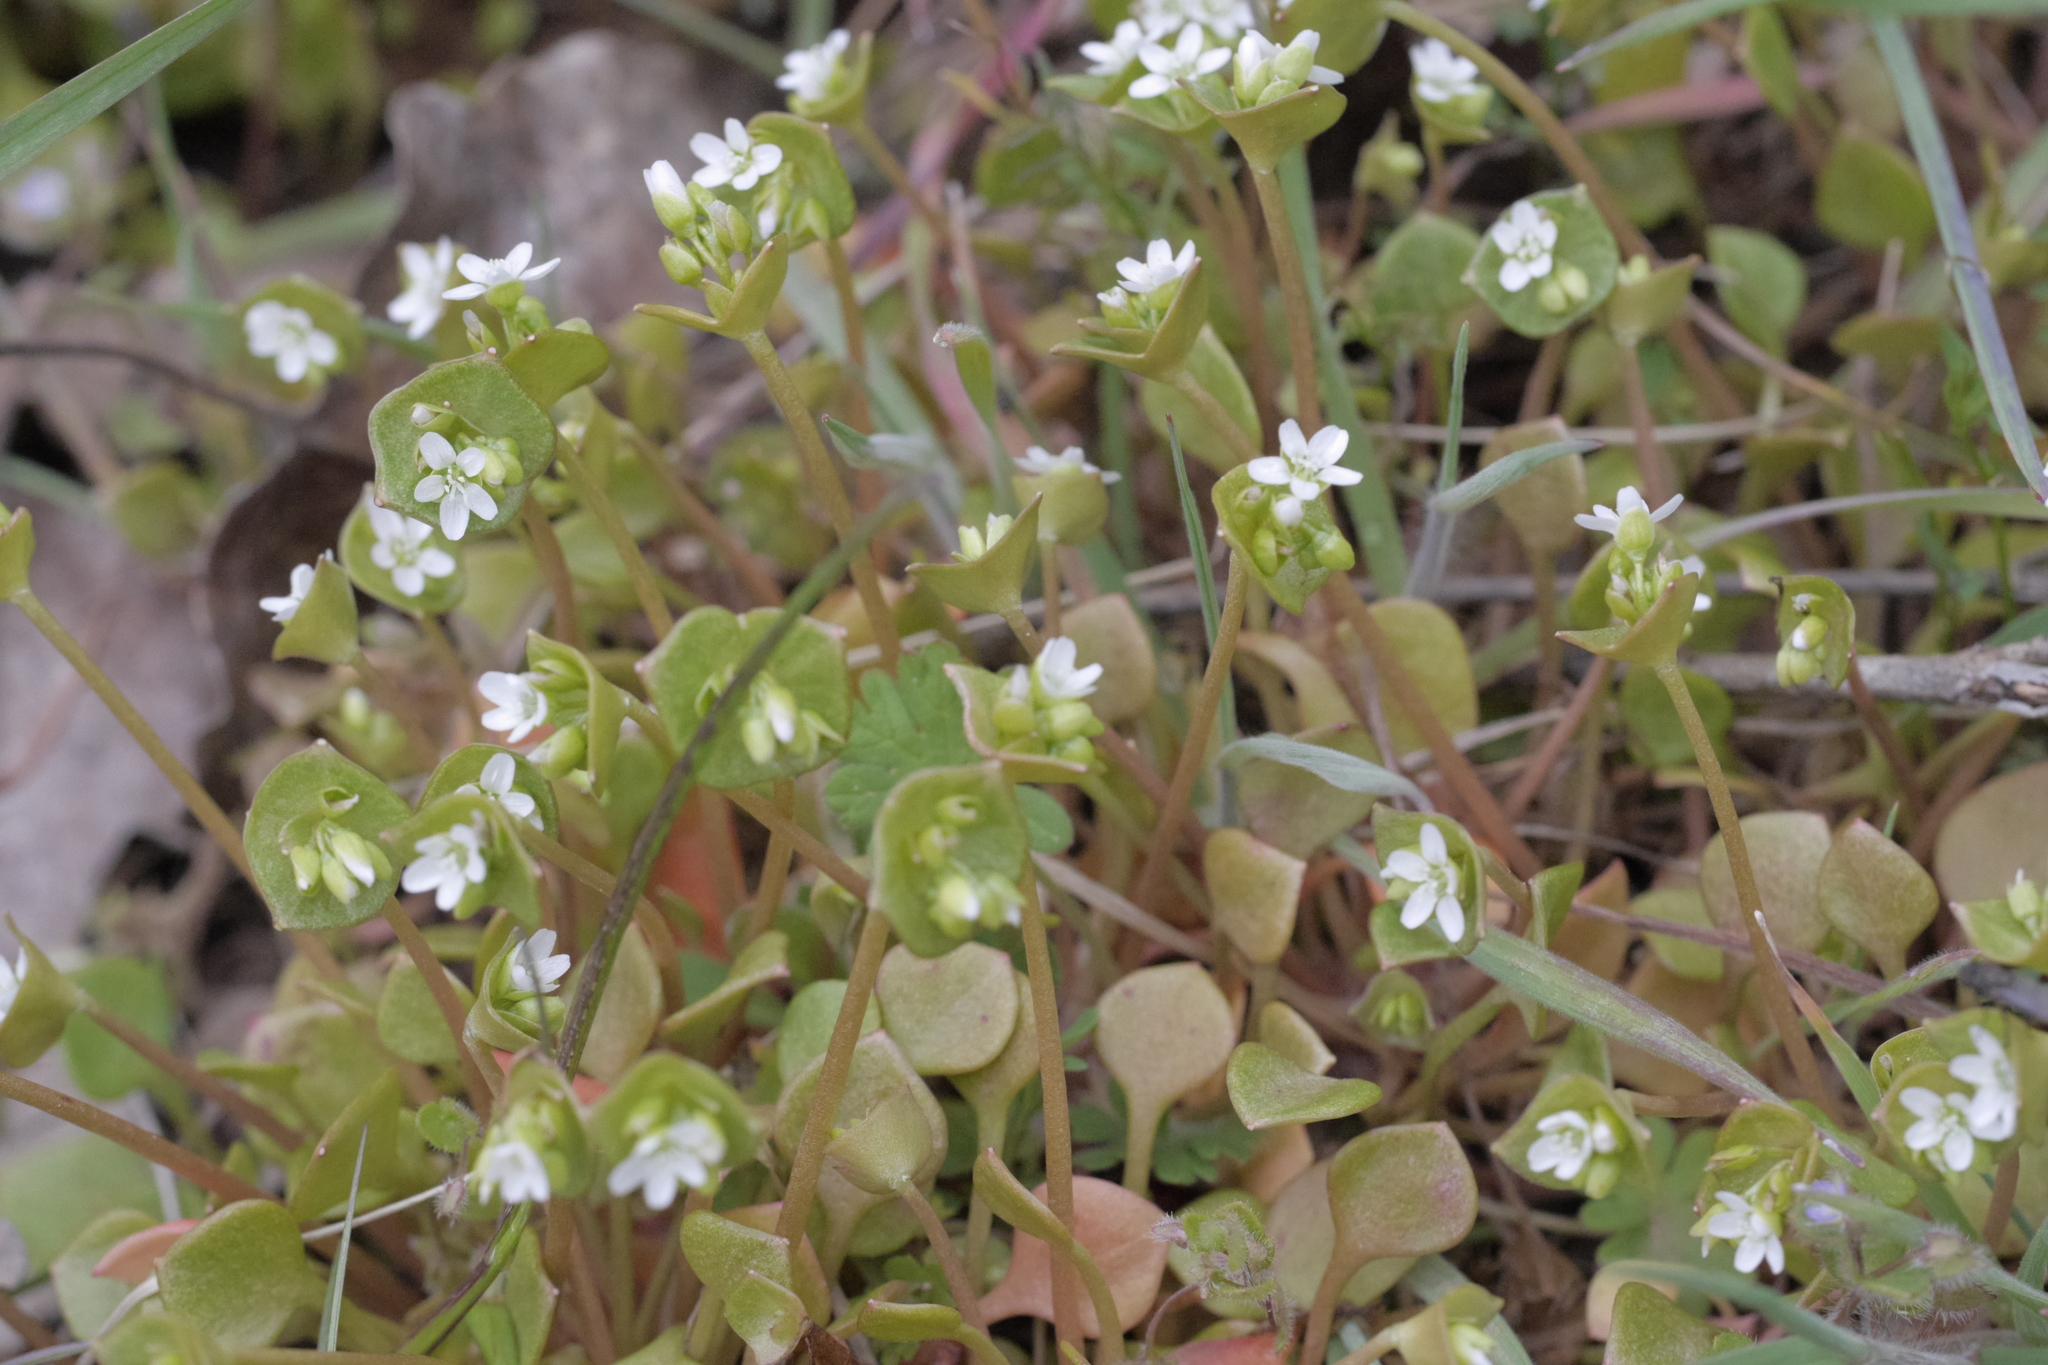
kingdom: Plantae
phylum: Tracheophyta
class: Magnoliopsida
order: Caryophyllales
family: Montiaceae
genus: Claytonia
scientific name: Claytonia perfoliata
